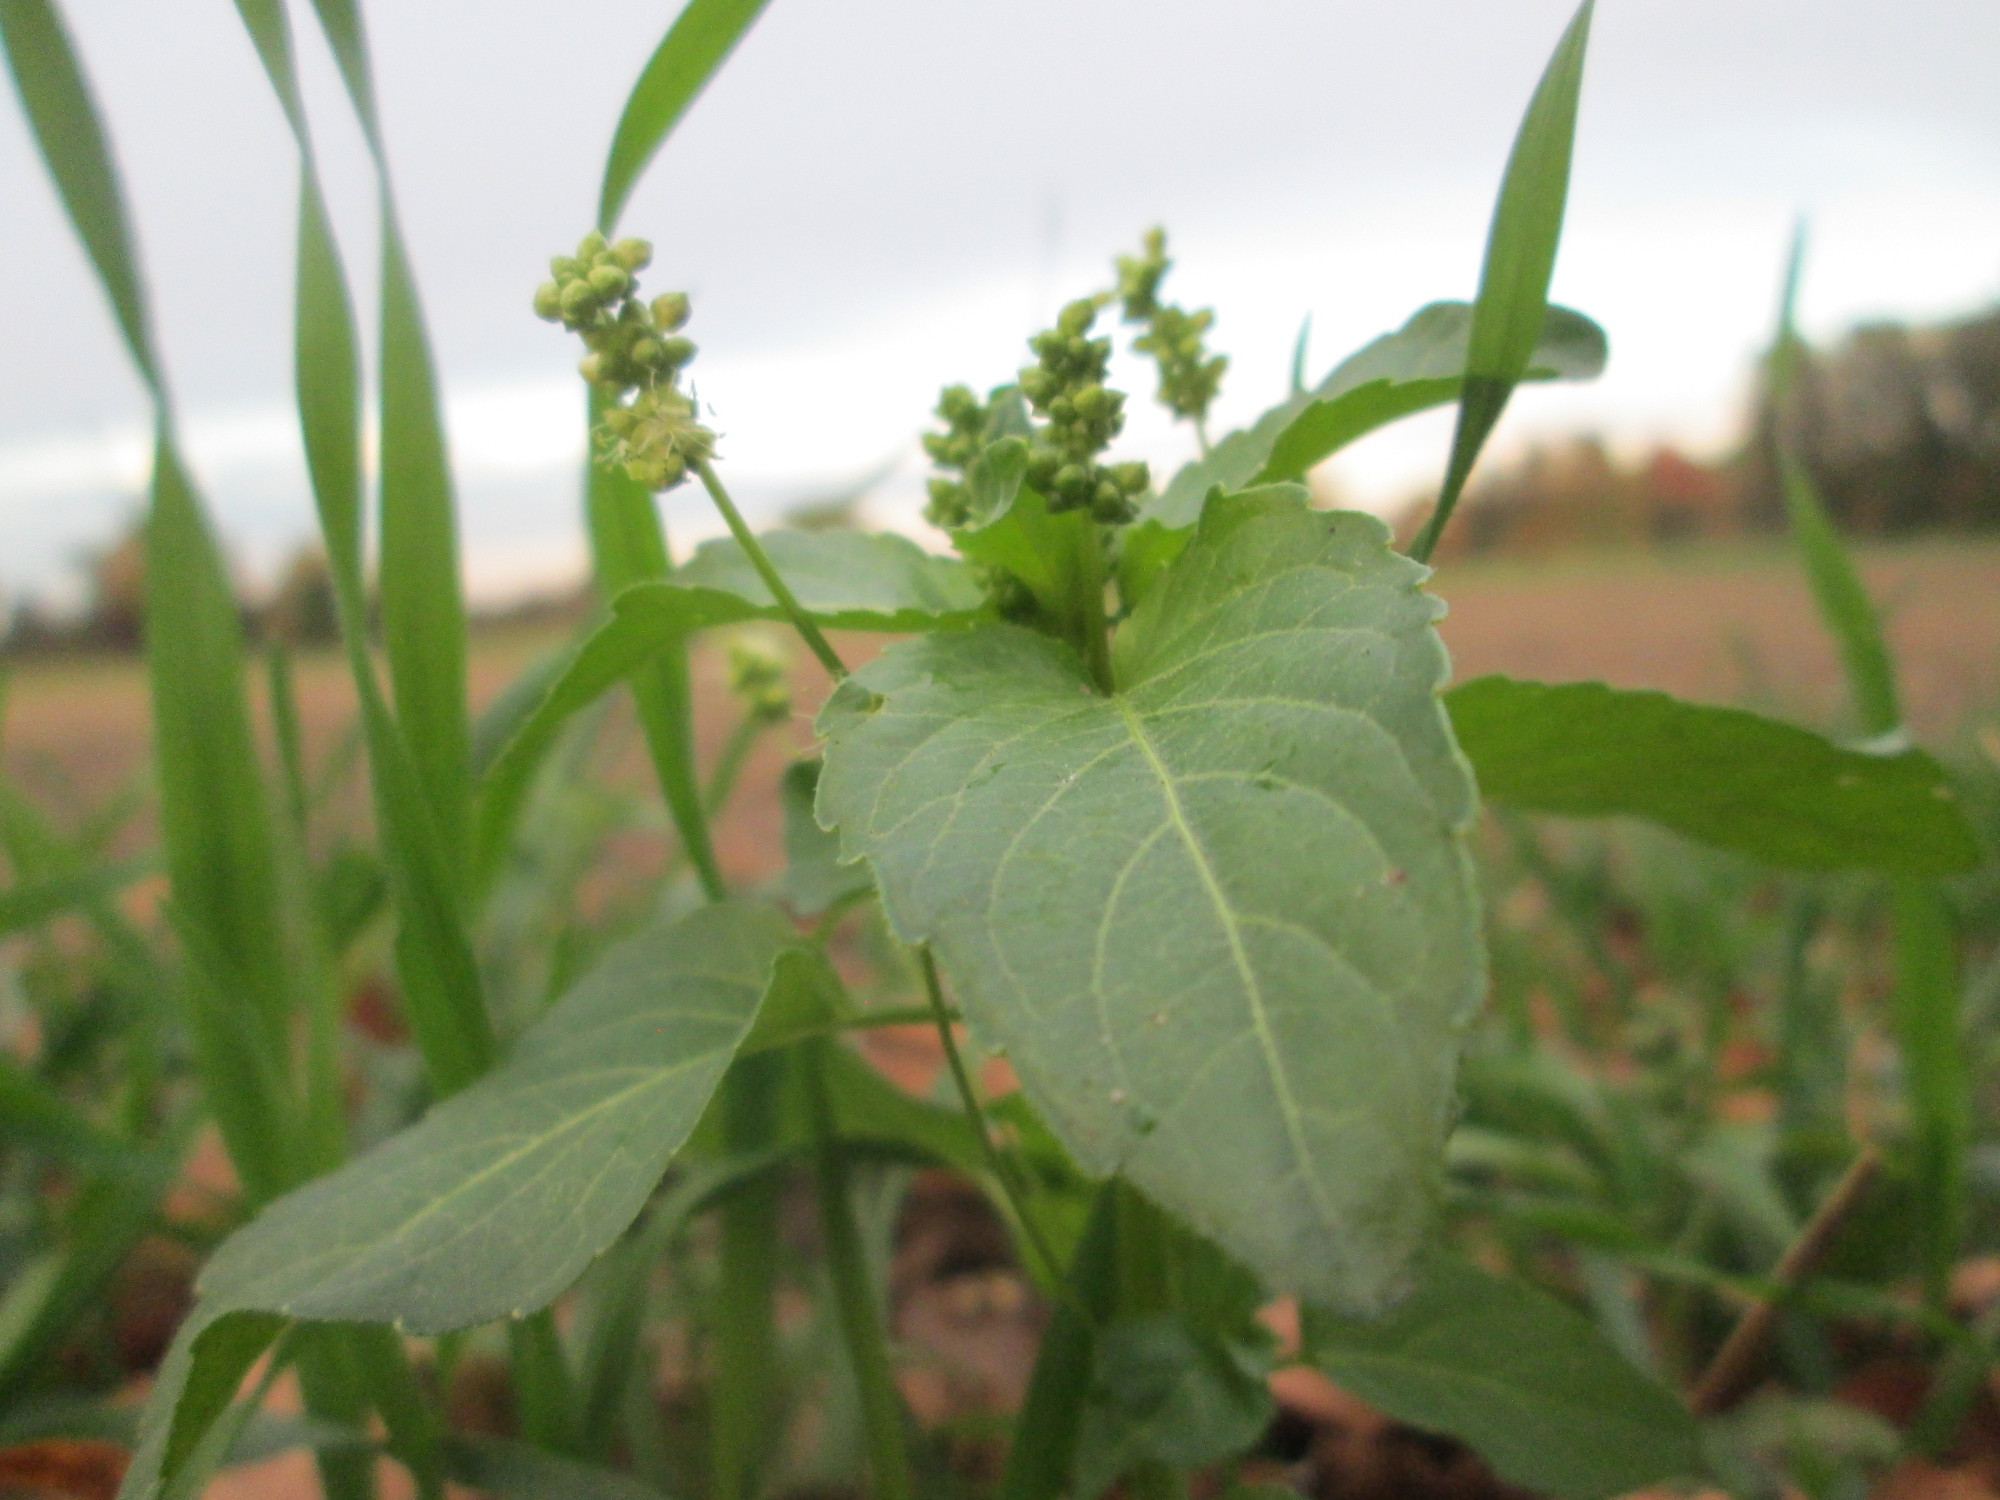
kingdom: Plantae
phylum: Tracheophyta
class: Magnoliopsida
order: Malpighiales
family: Euphorbiaceae
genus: Mercurialis
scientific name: Mercurialis annua
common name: Annual mercury
